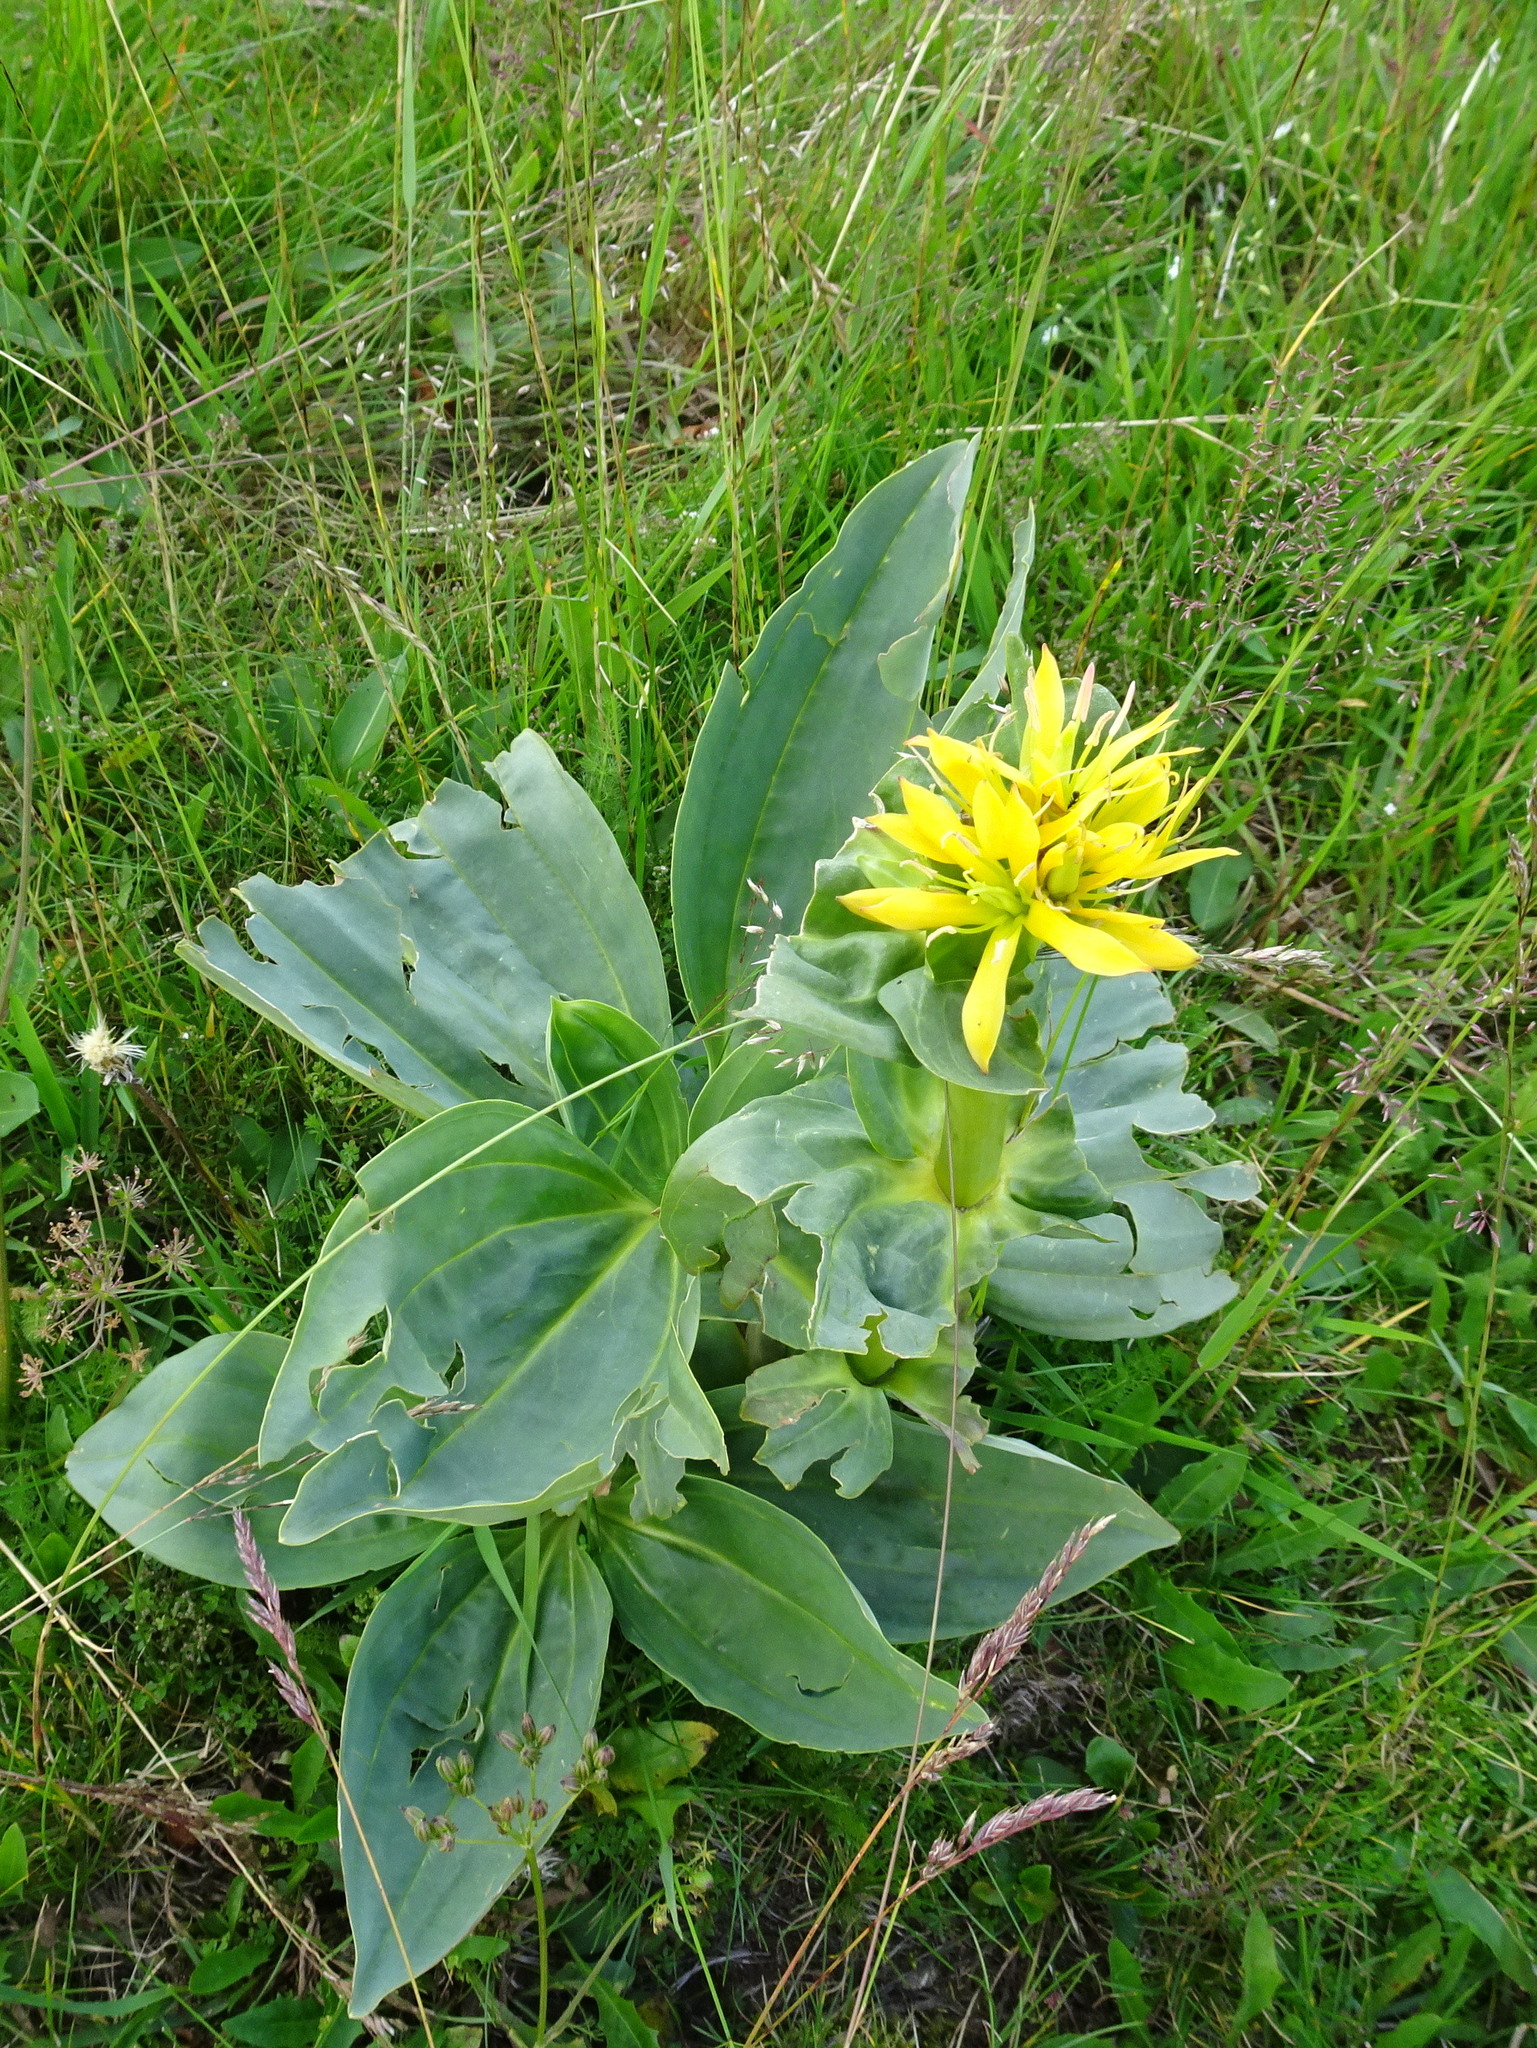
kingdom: Plantae
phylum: Tracheophyta
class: Magnoliopsida
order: Gentianales
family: Gentianaceae
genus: Gentiana
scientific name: Gentiana lutea
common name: Great yellow gentian
